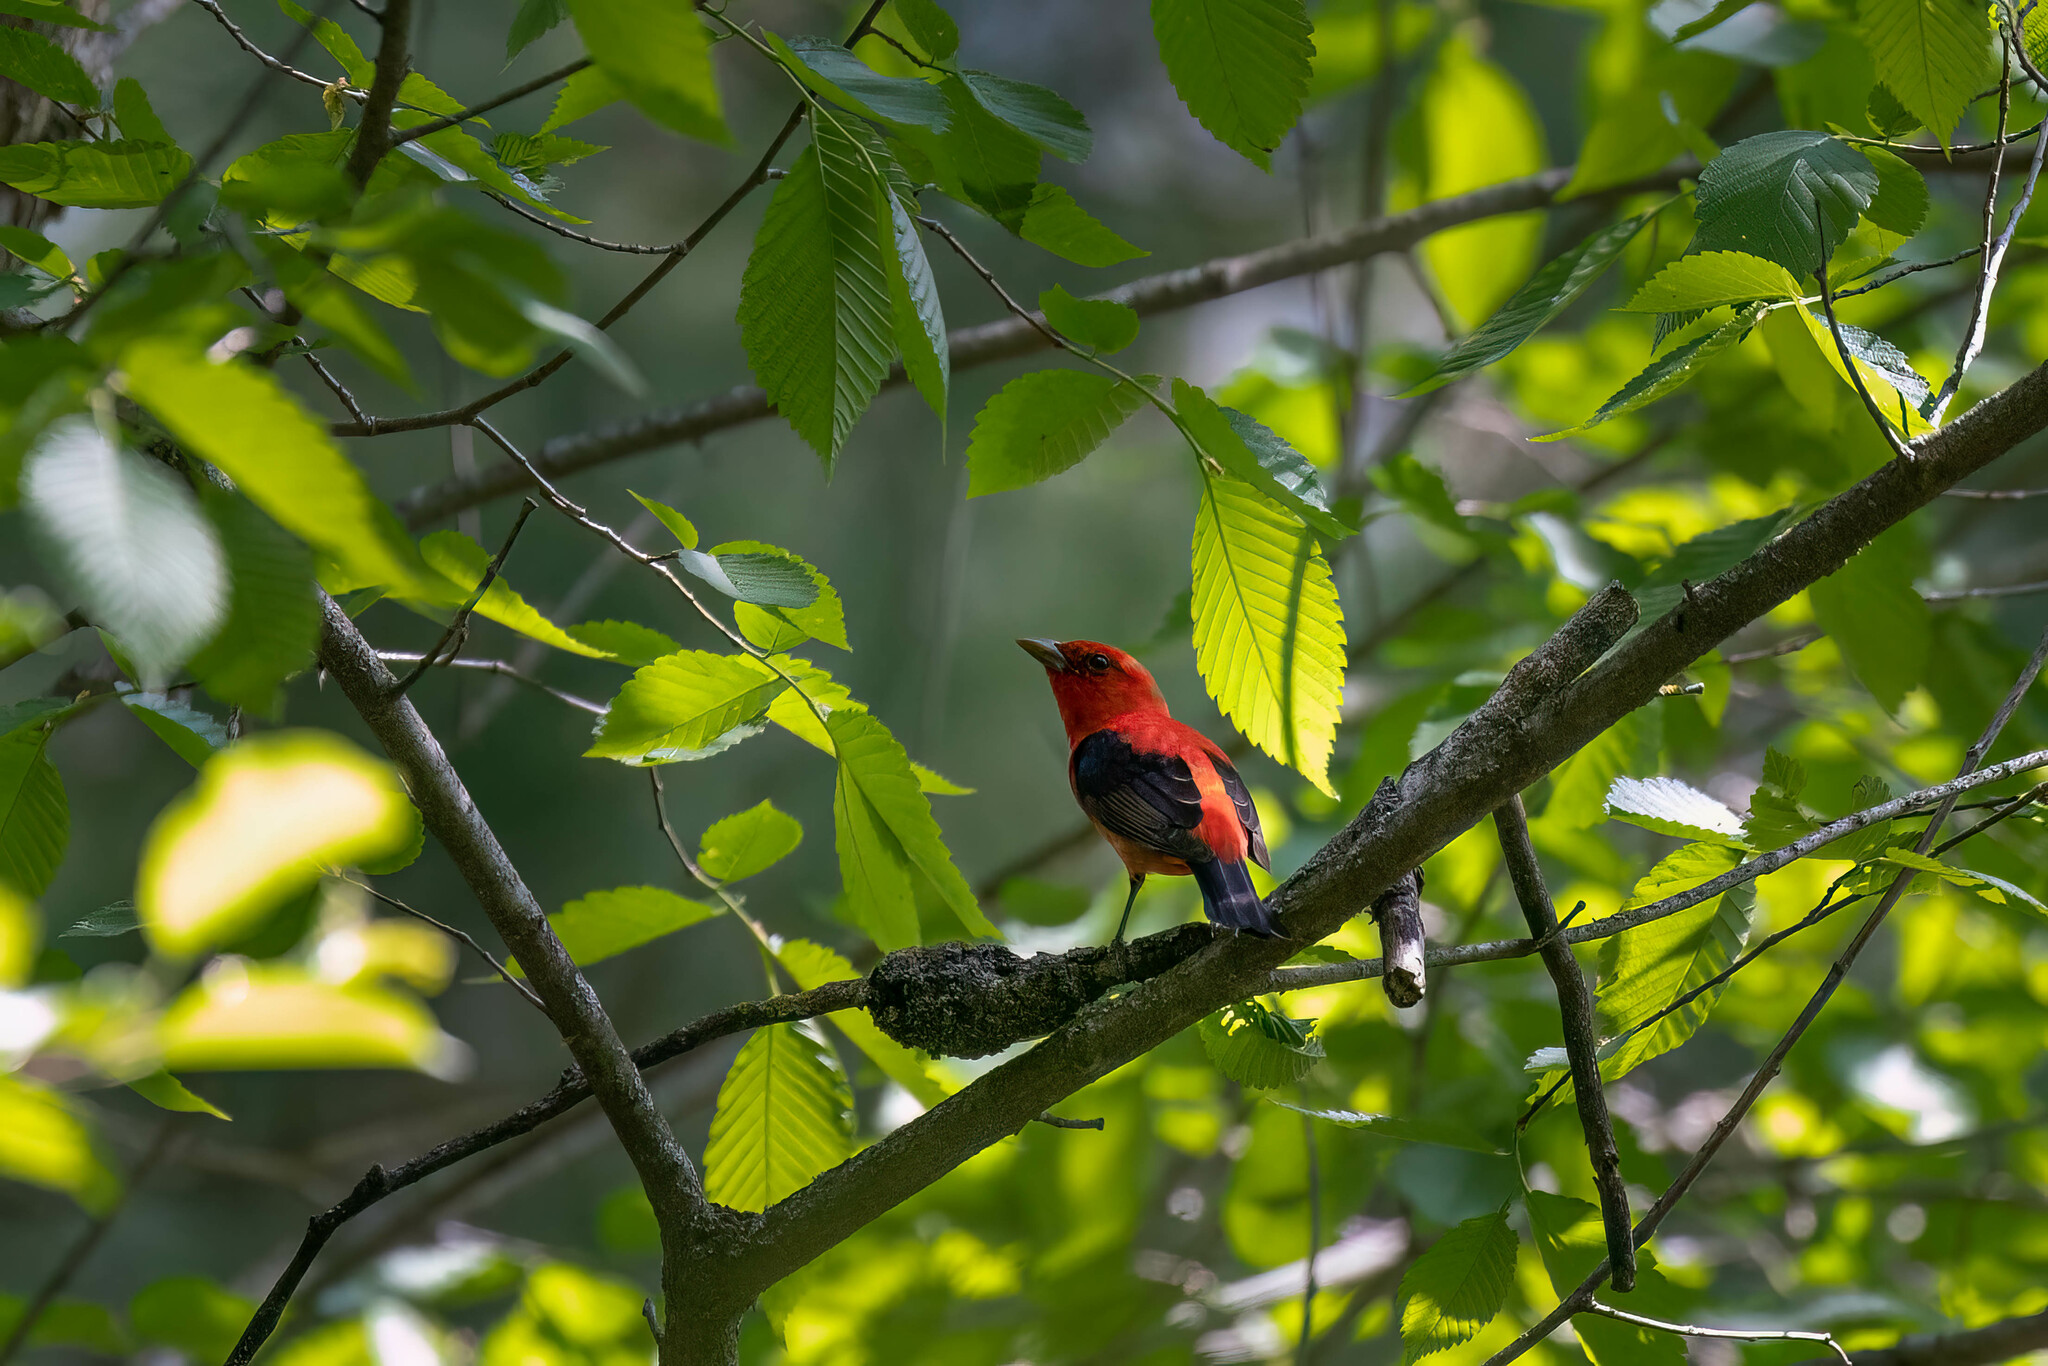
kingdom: Animalia
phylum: Chordata
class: Aves
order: Passeriformes
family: Cardinalidae
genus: Piranga
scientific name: Piranga olivacea
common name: Scarlet tanager
